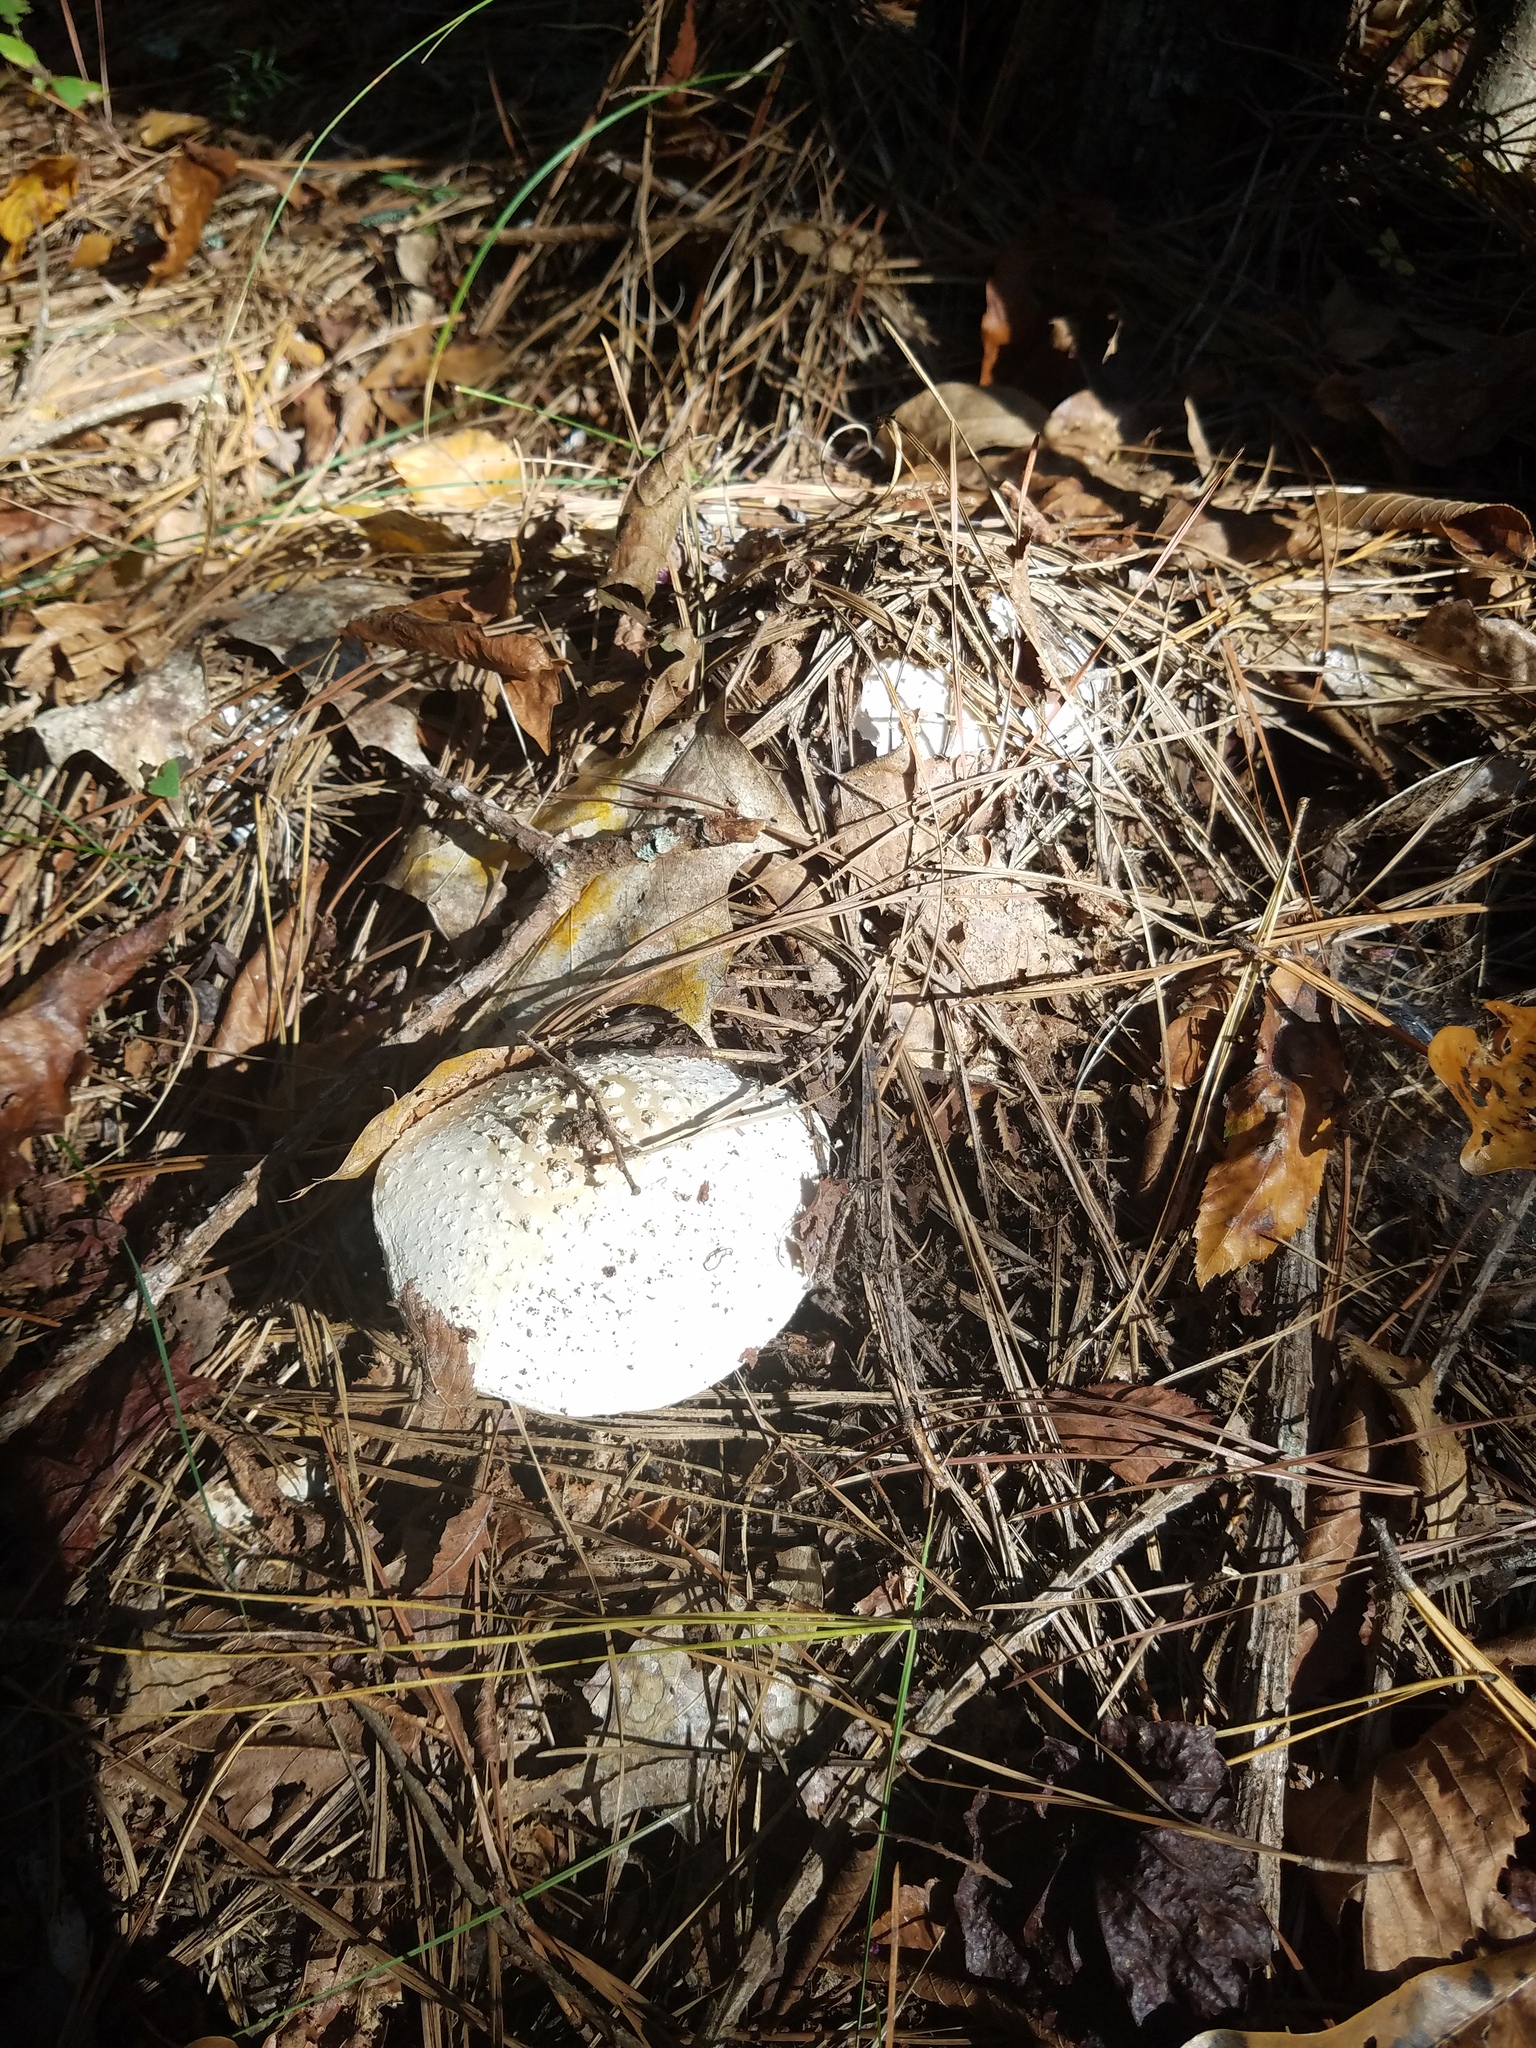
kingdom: Fungi
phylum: Basidiomycota
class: Agaricomycetes
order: Agaricales
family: Amanitaceae
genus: Amanita
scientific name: Amanita
